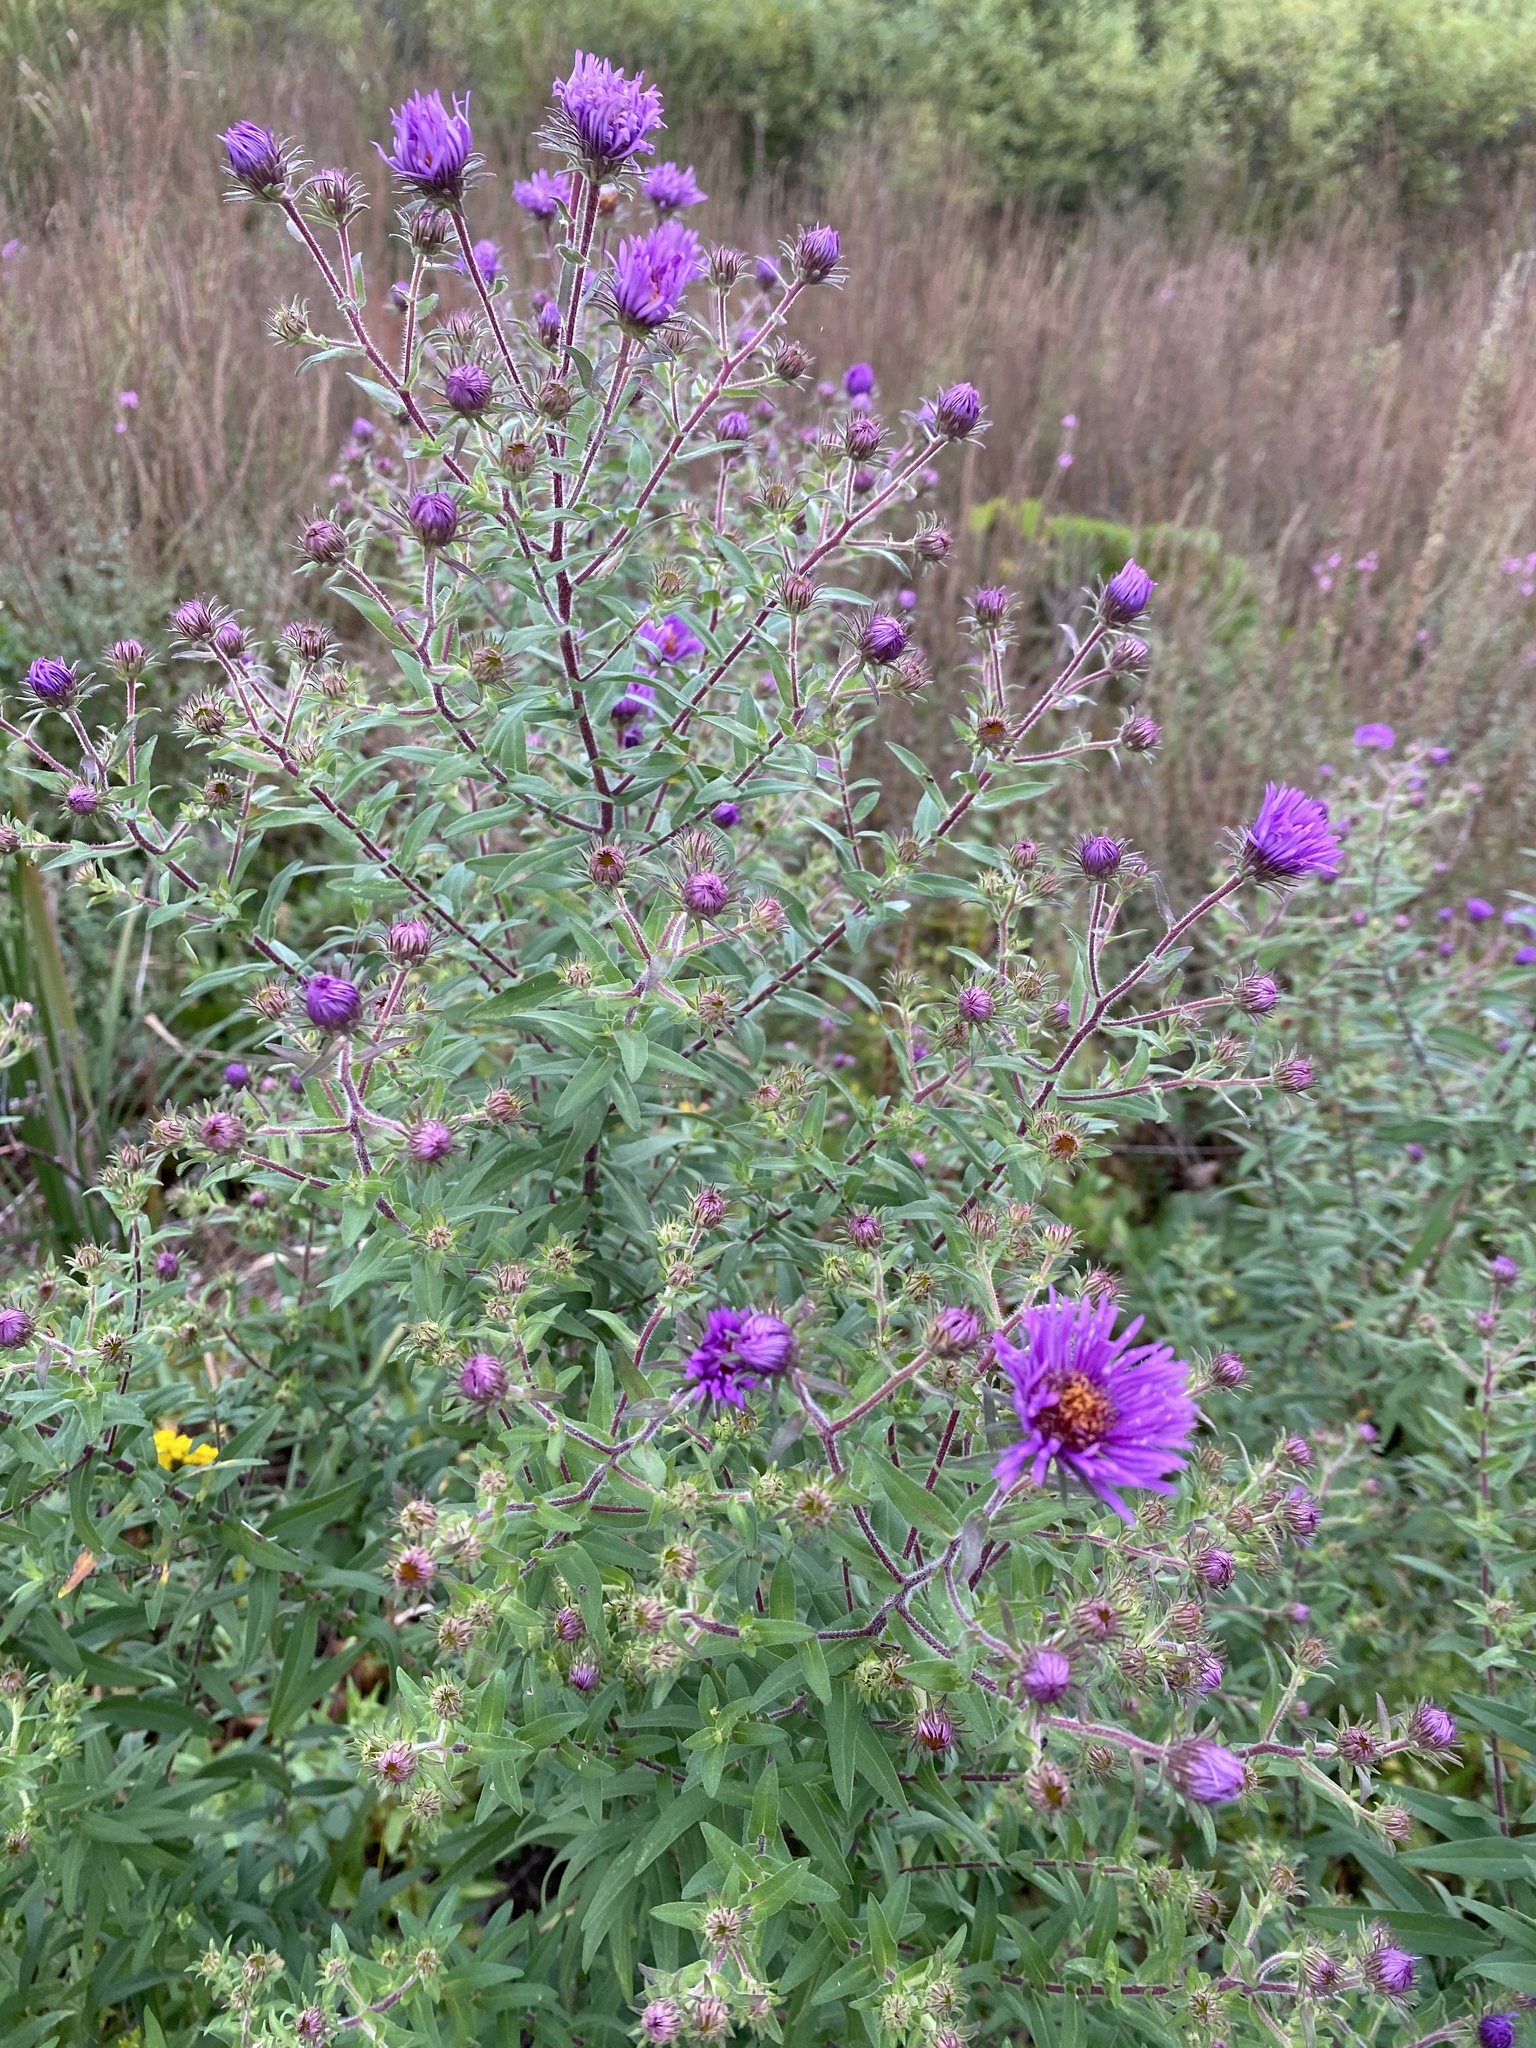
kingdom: Plantae
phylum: Tracheophyta
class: Magnoliopsida
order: Asterales
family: Asteraceae
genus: Symphyotrichum
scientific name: Symphyotrichum novae-angliae
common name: Michaelmas daisy
